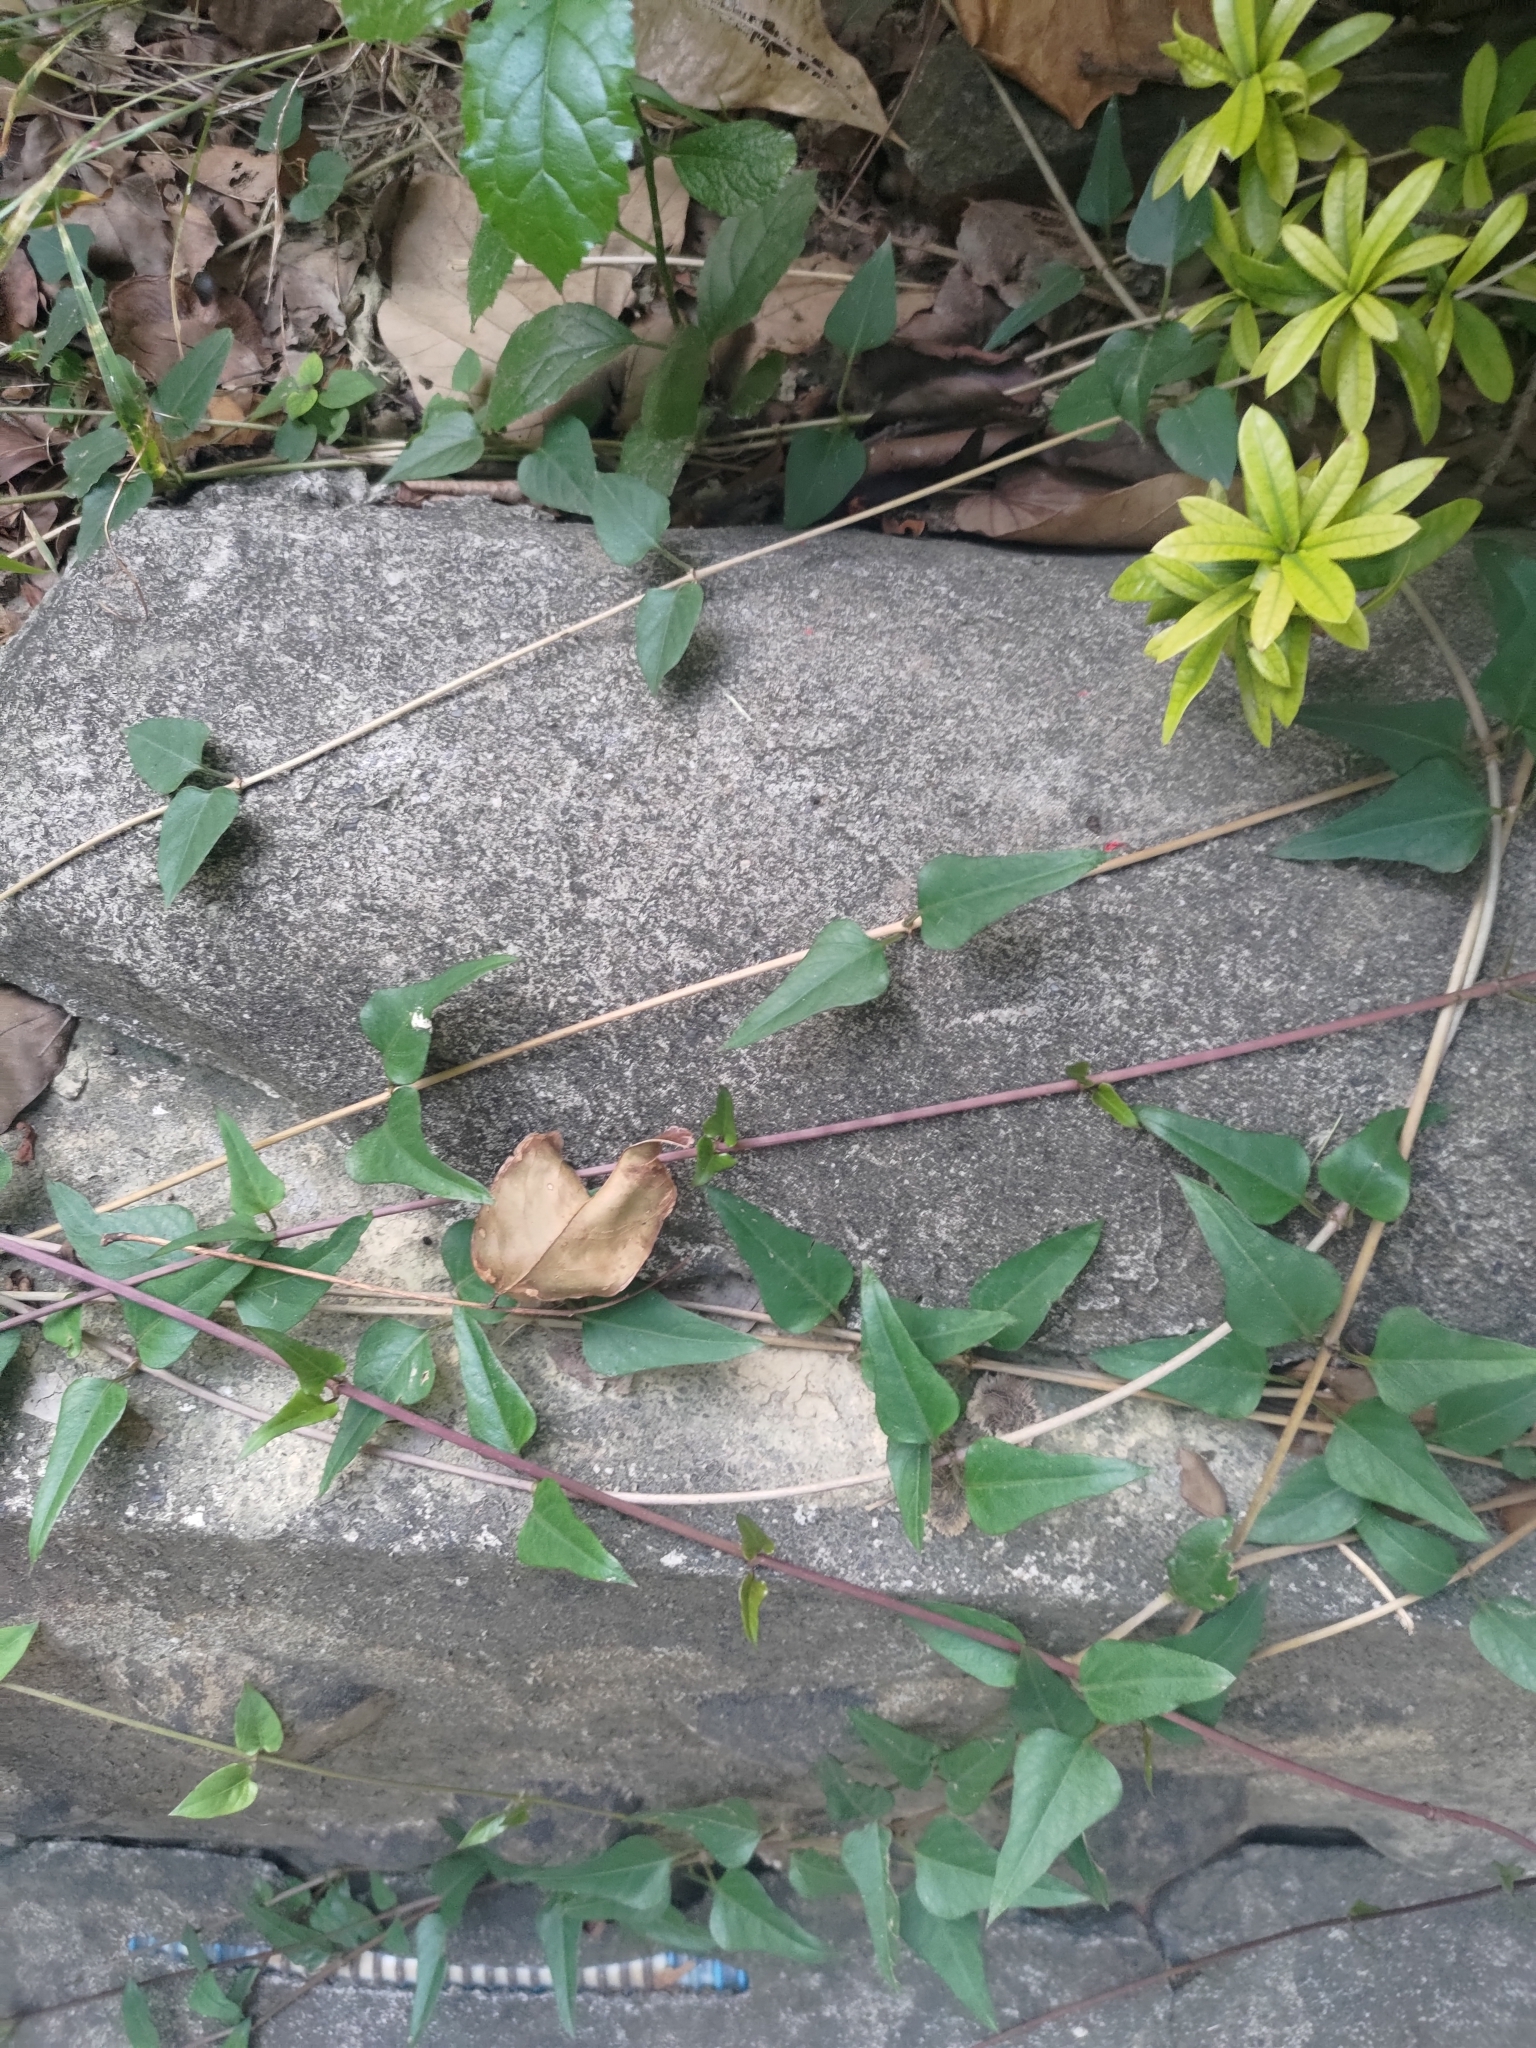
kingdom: Plantae
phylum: Tracheophyta
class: Magnoliopsida
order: Gentianales
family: Rubiaceae
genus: Paederia
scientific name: Paederia foetida
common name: Stinkvine
